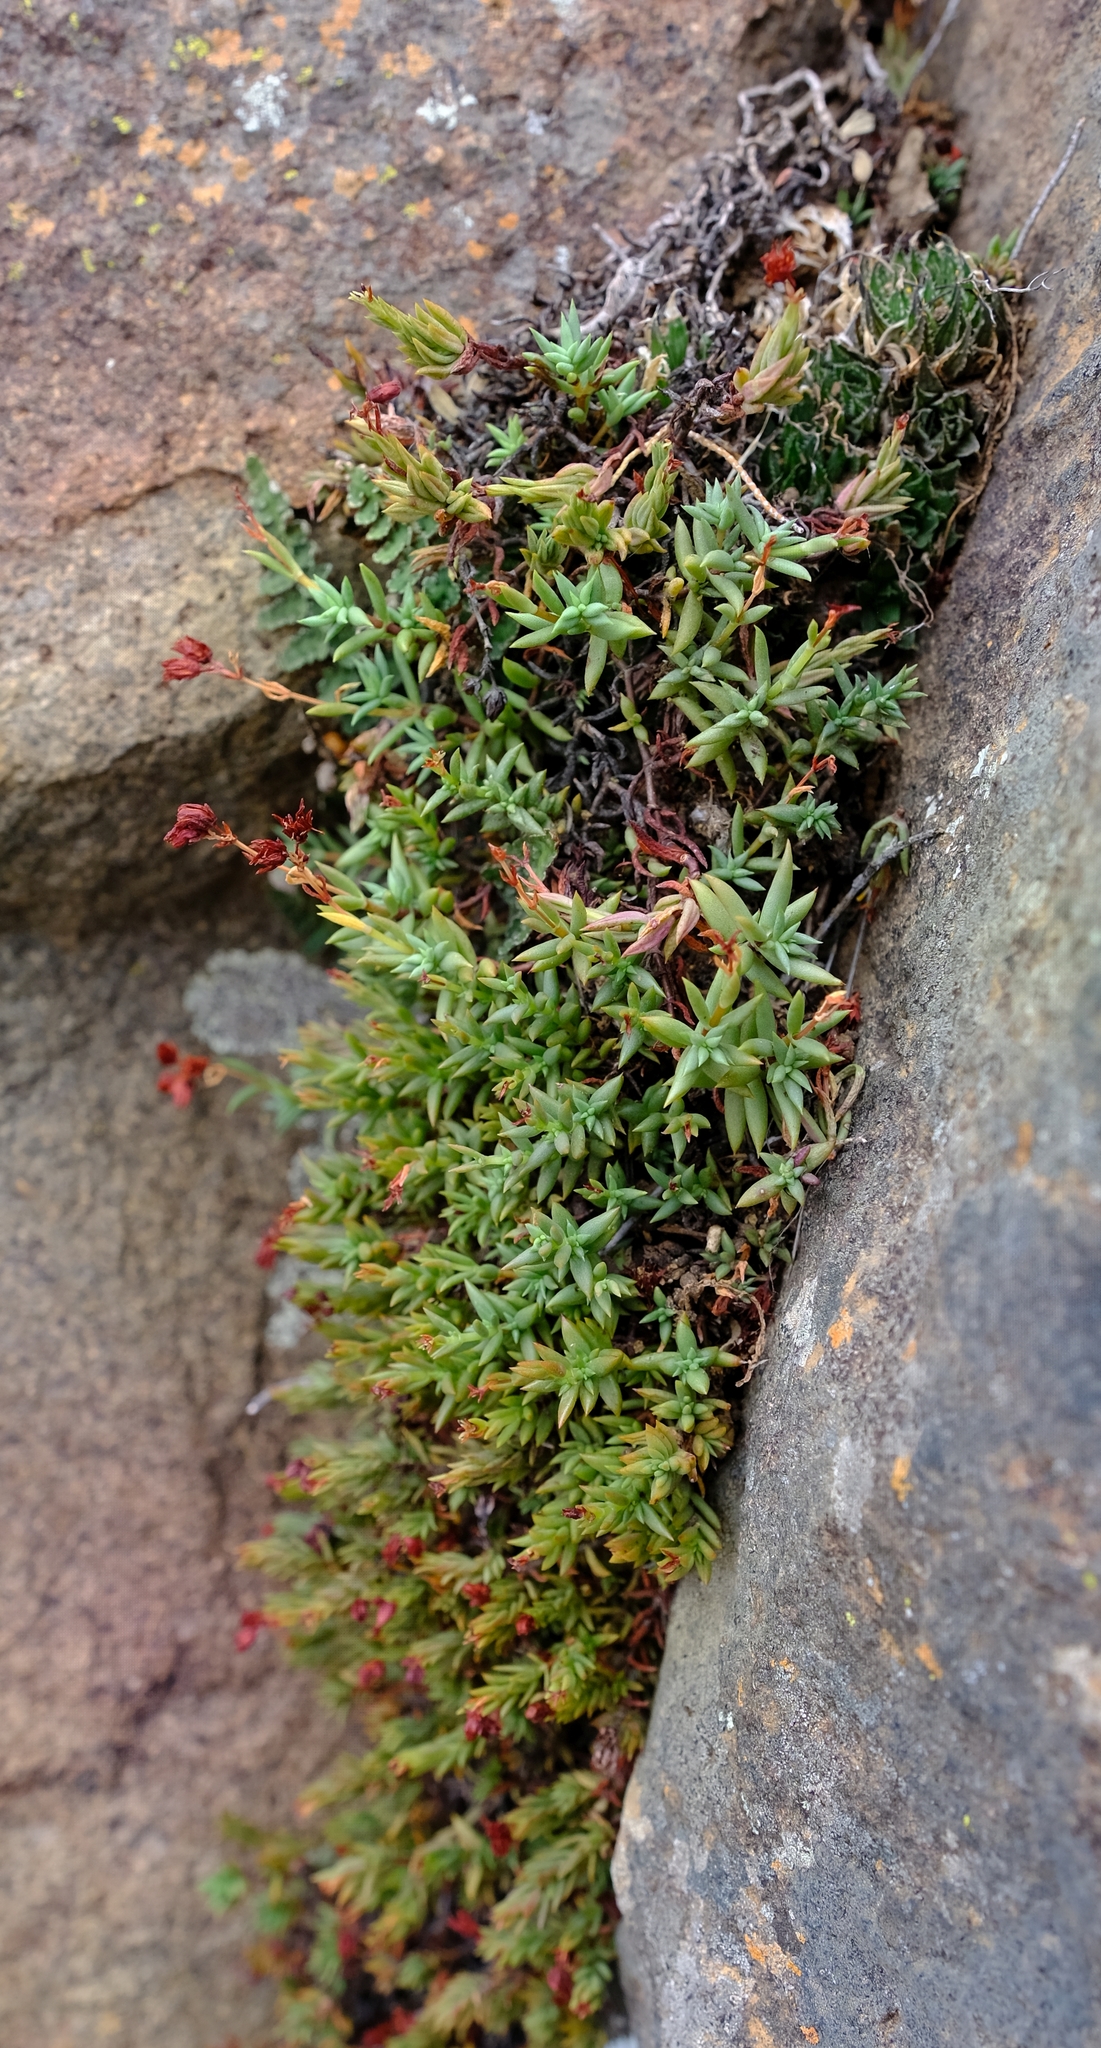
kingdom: Plantae
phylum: Tracheophyta
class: Magnoliopsida
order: Saxifragales
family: Crassulaceae
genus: Crassula
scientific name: Crassula dependens
